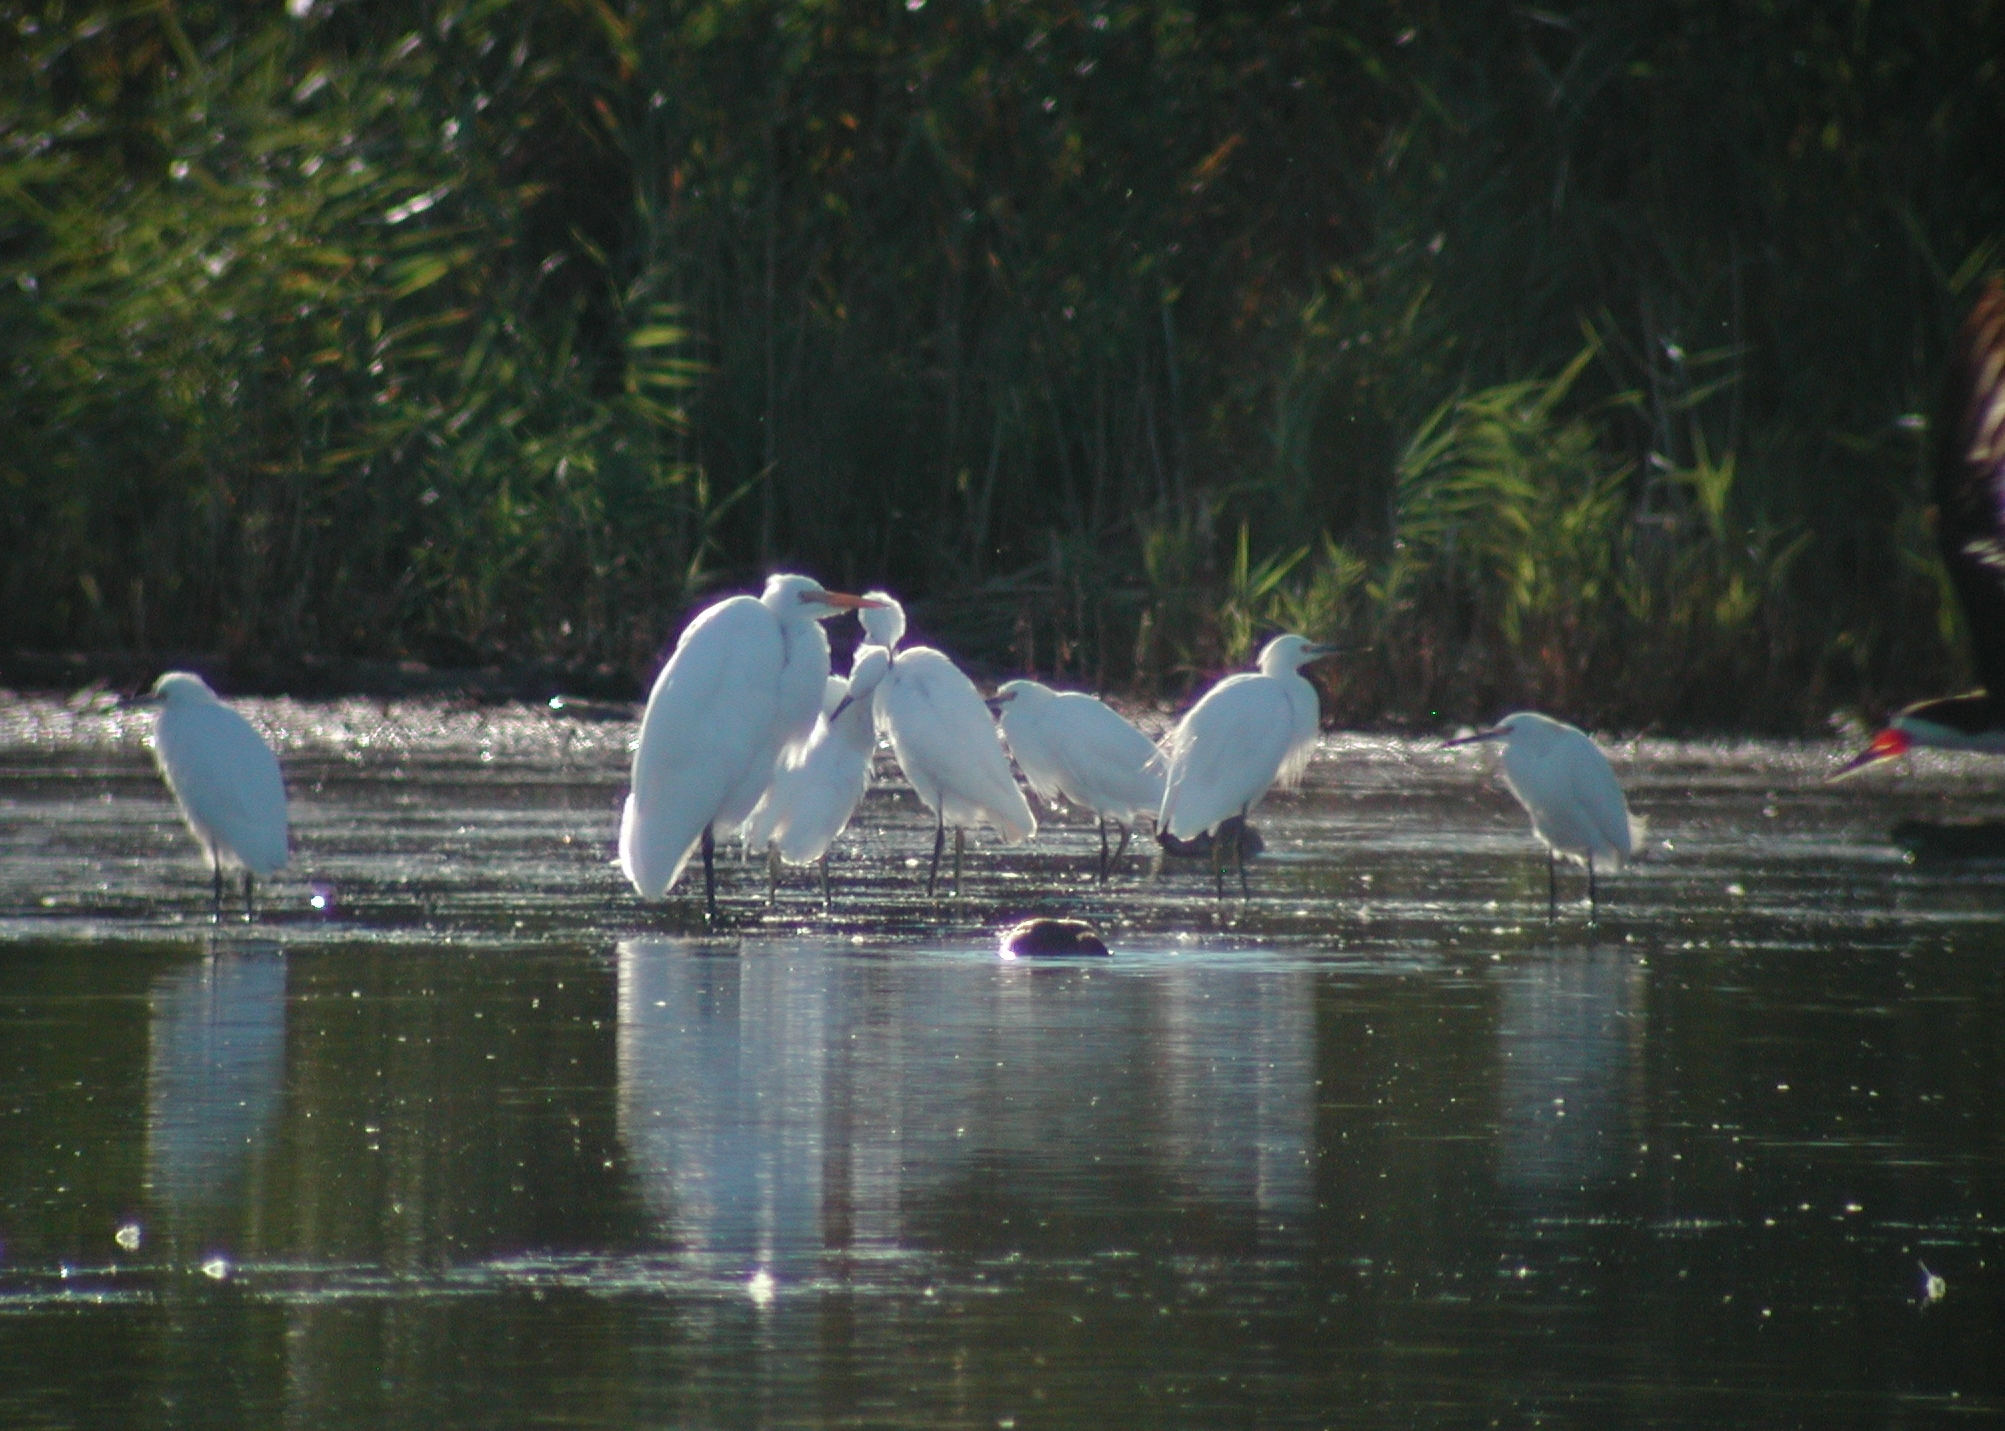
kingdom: Animalia
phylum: Chordata
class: Aves
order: Pelecaniformes
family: Ardeidae
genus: Ardea
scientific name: Ardea alba
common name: Great egret
